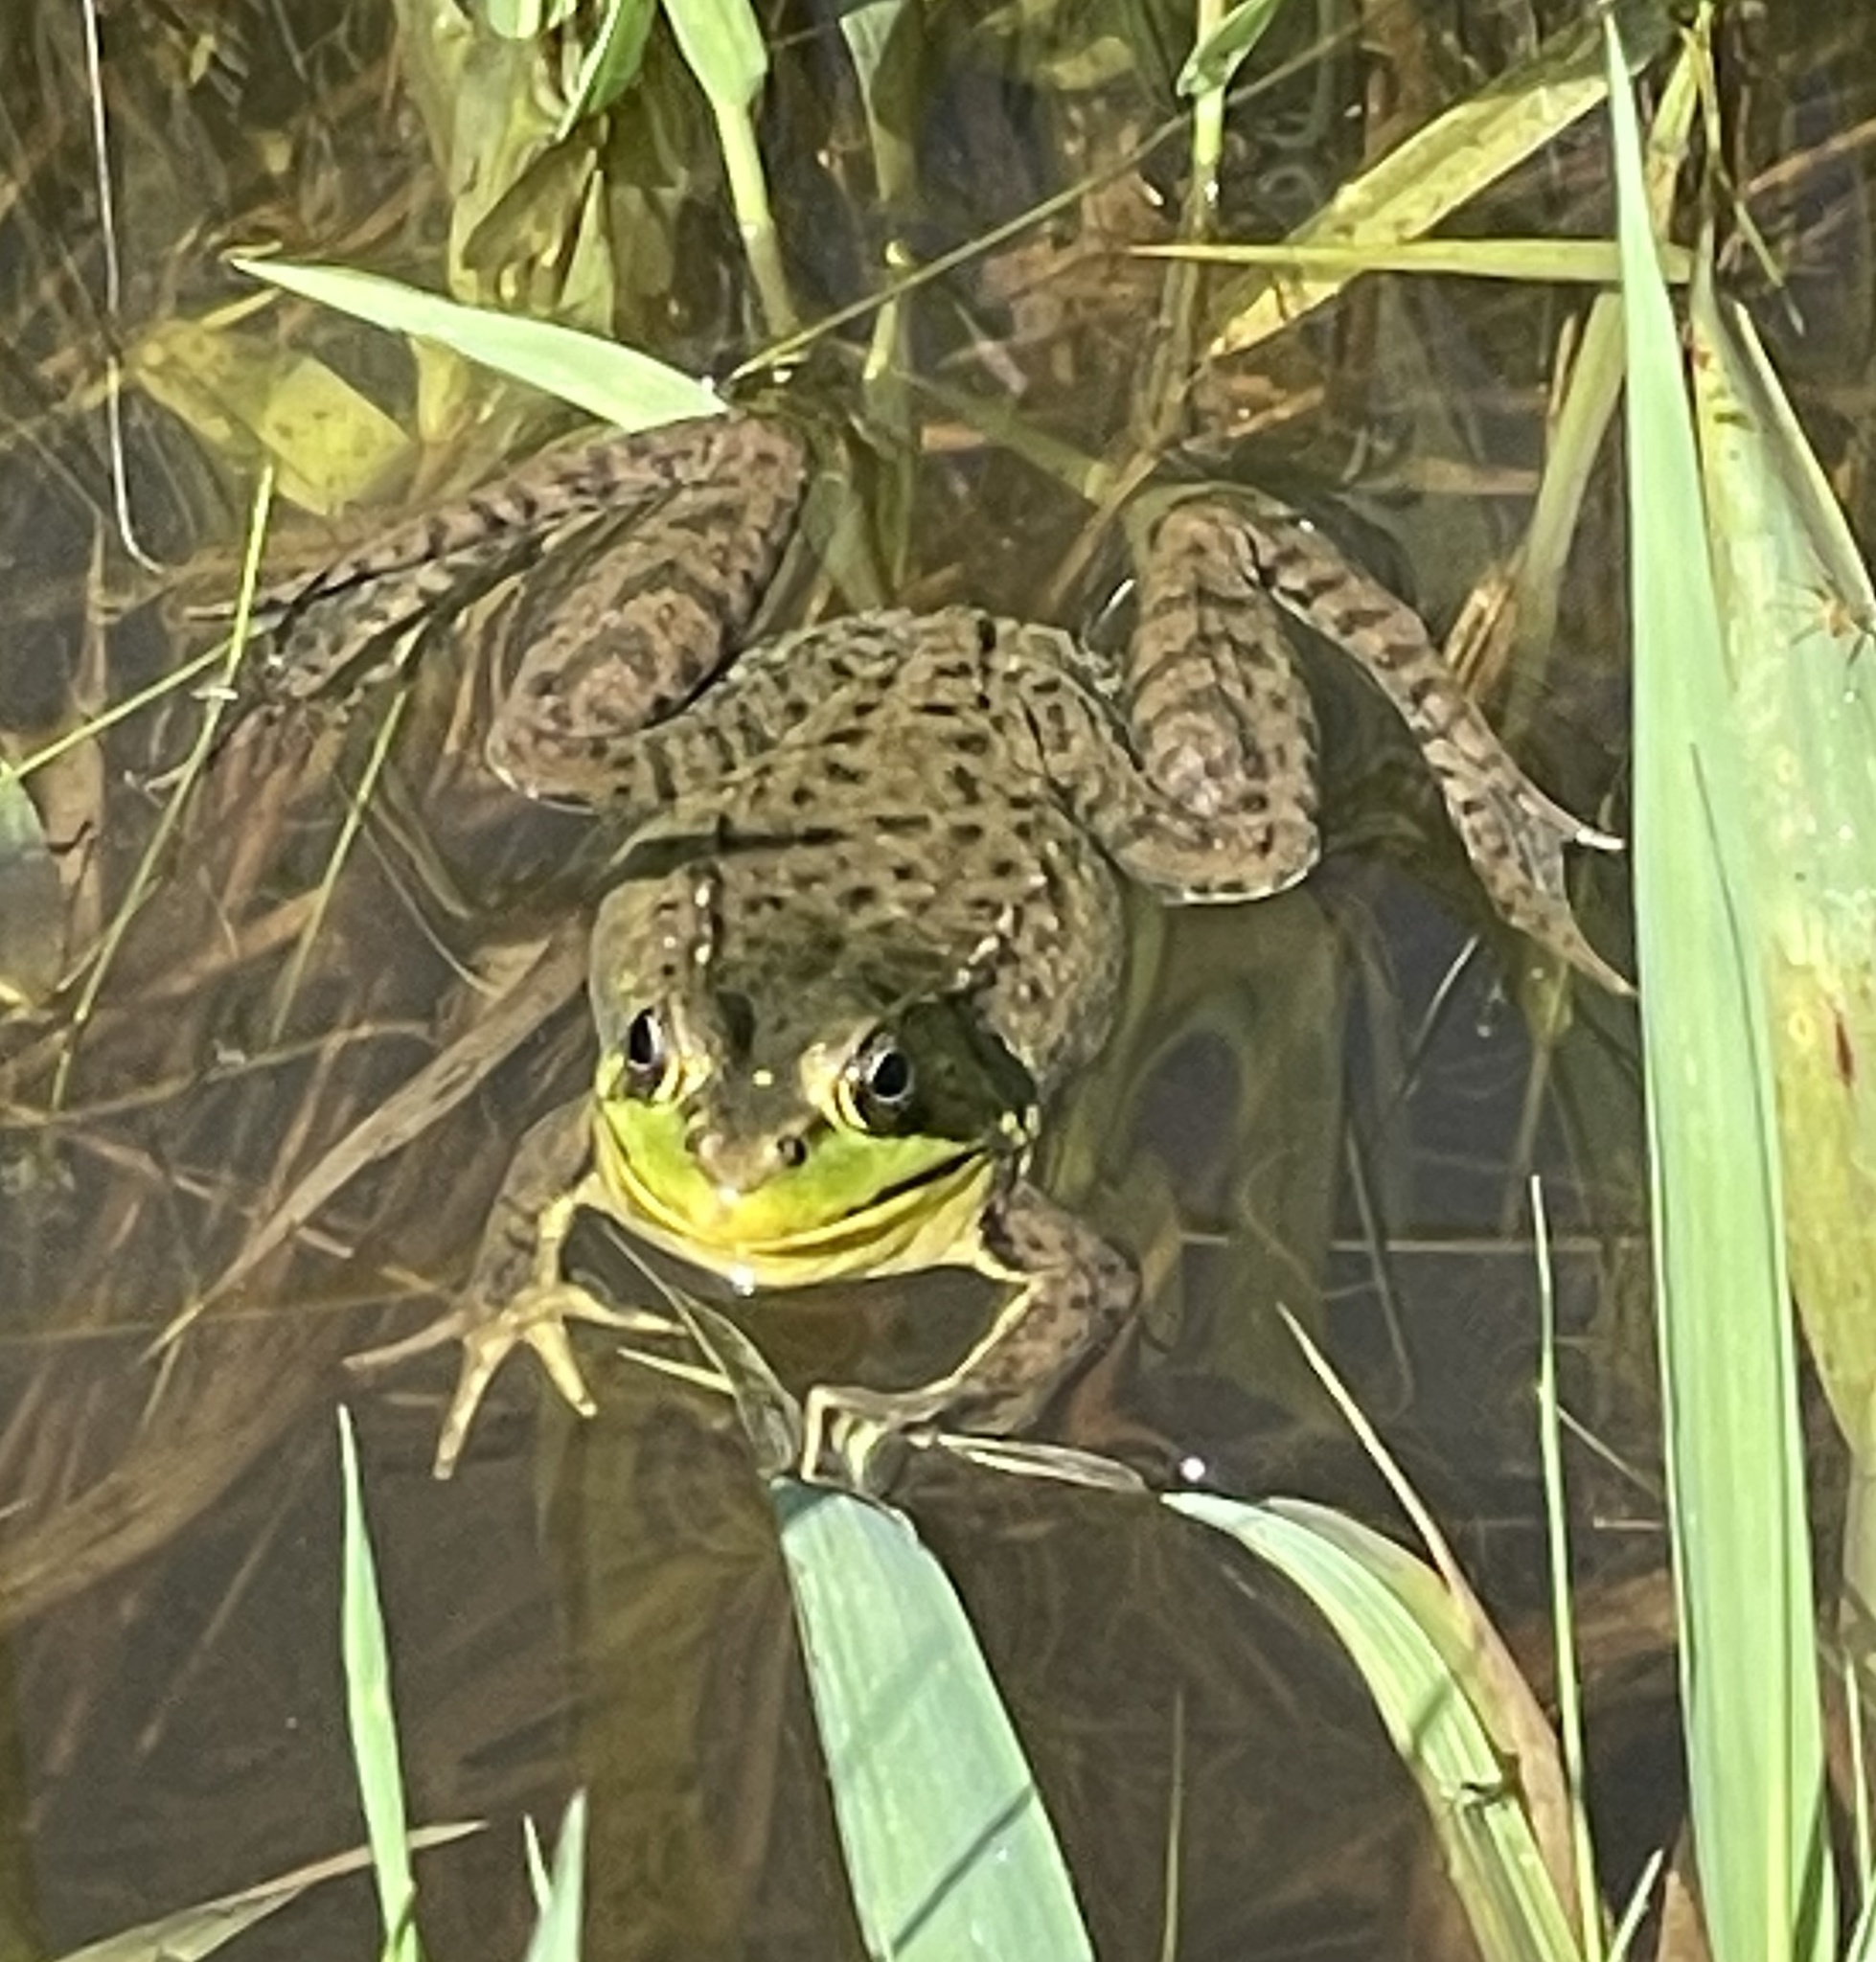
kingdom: Animalia
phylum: Chordata
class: Amphibia
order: Anura
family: Ranidae
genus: Lithobates
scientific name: Lithobates clamitans
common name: Green frog
